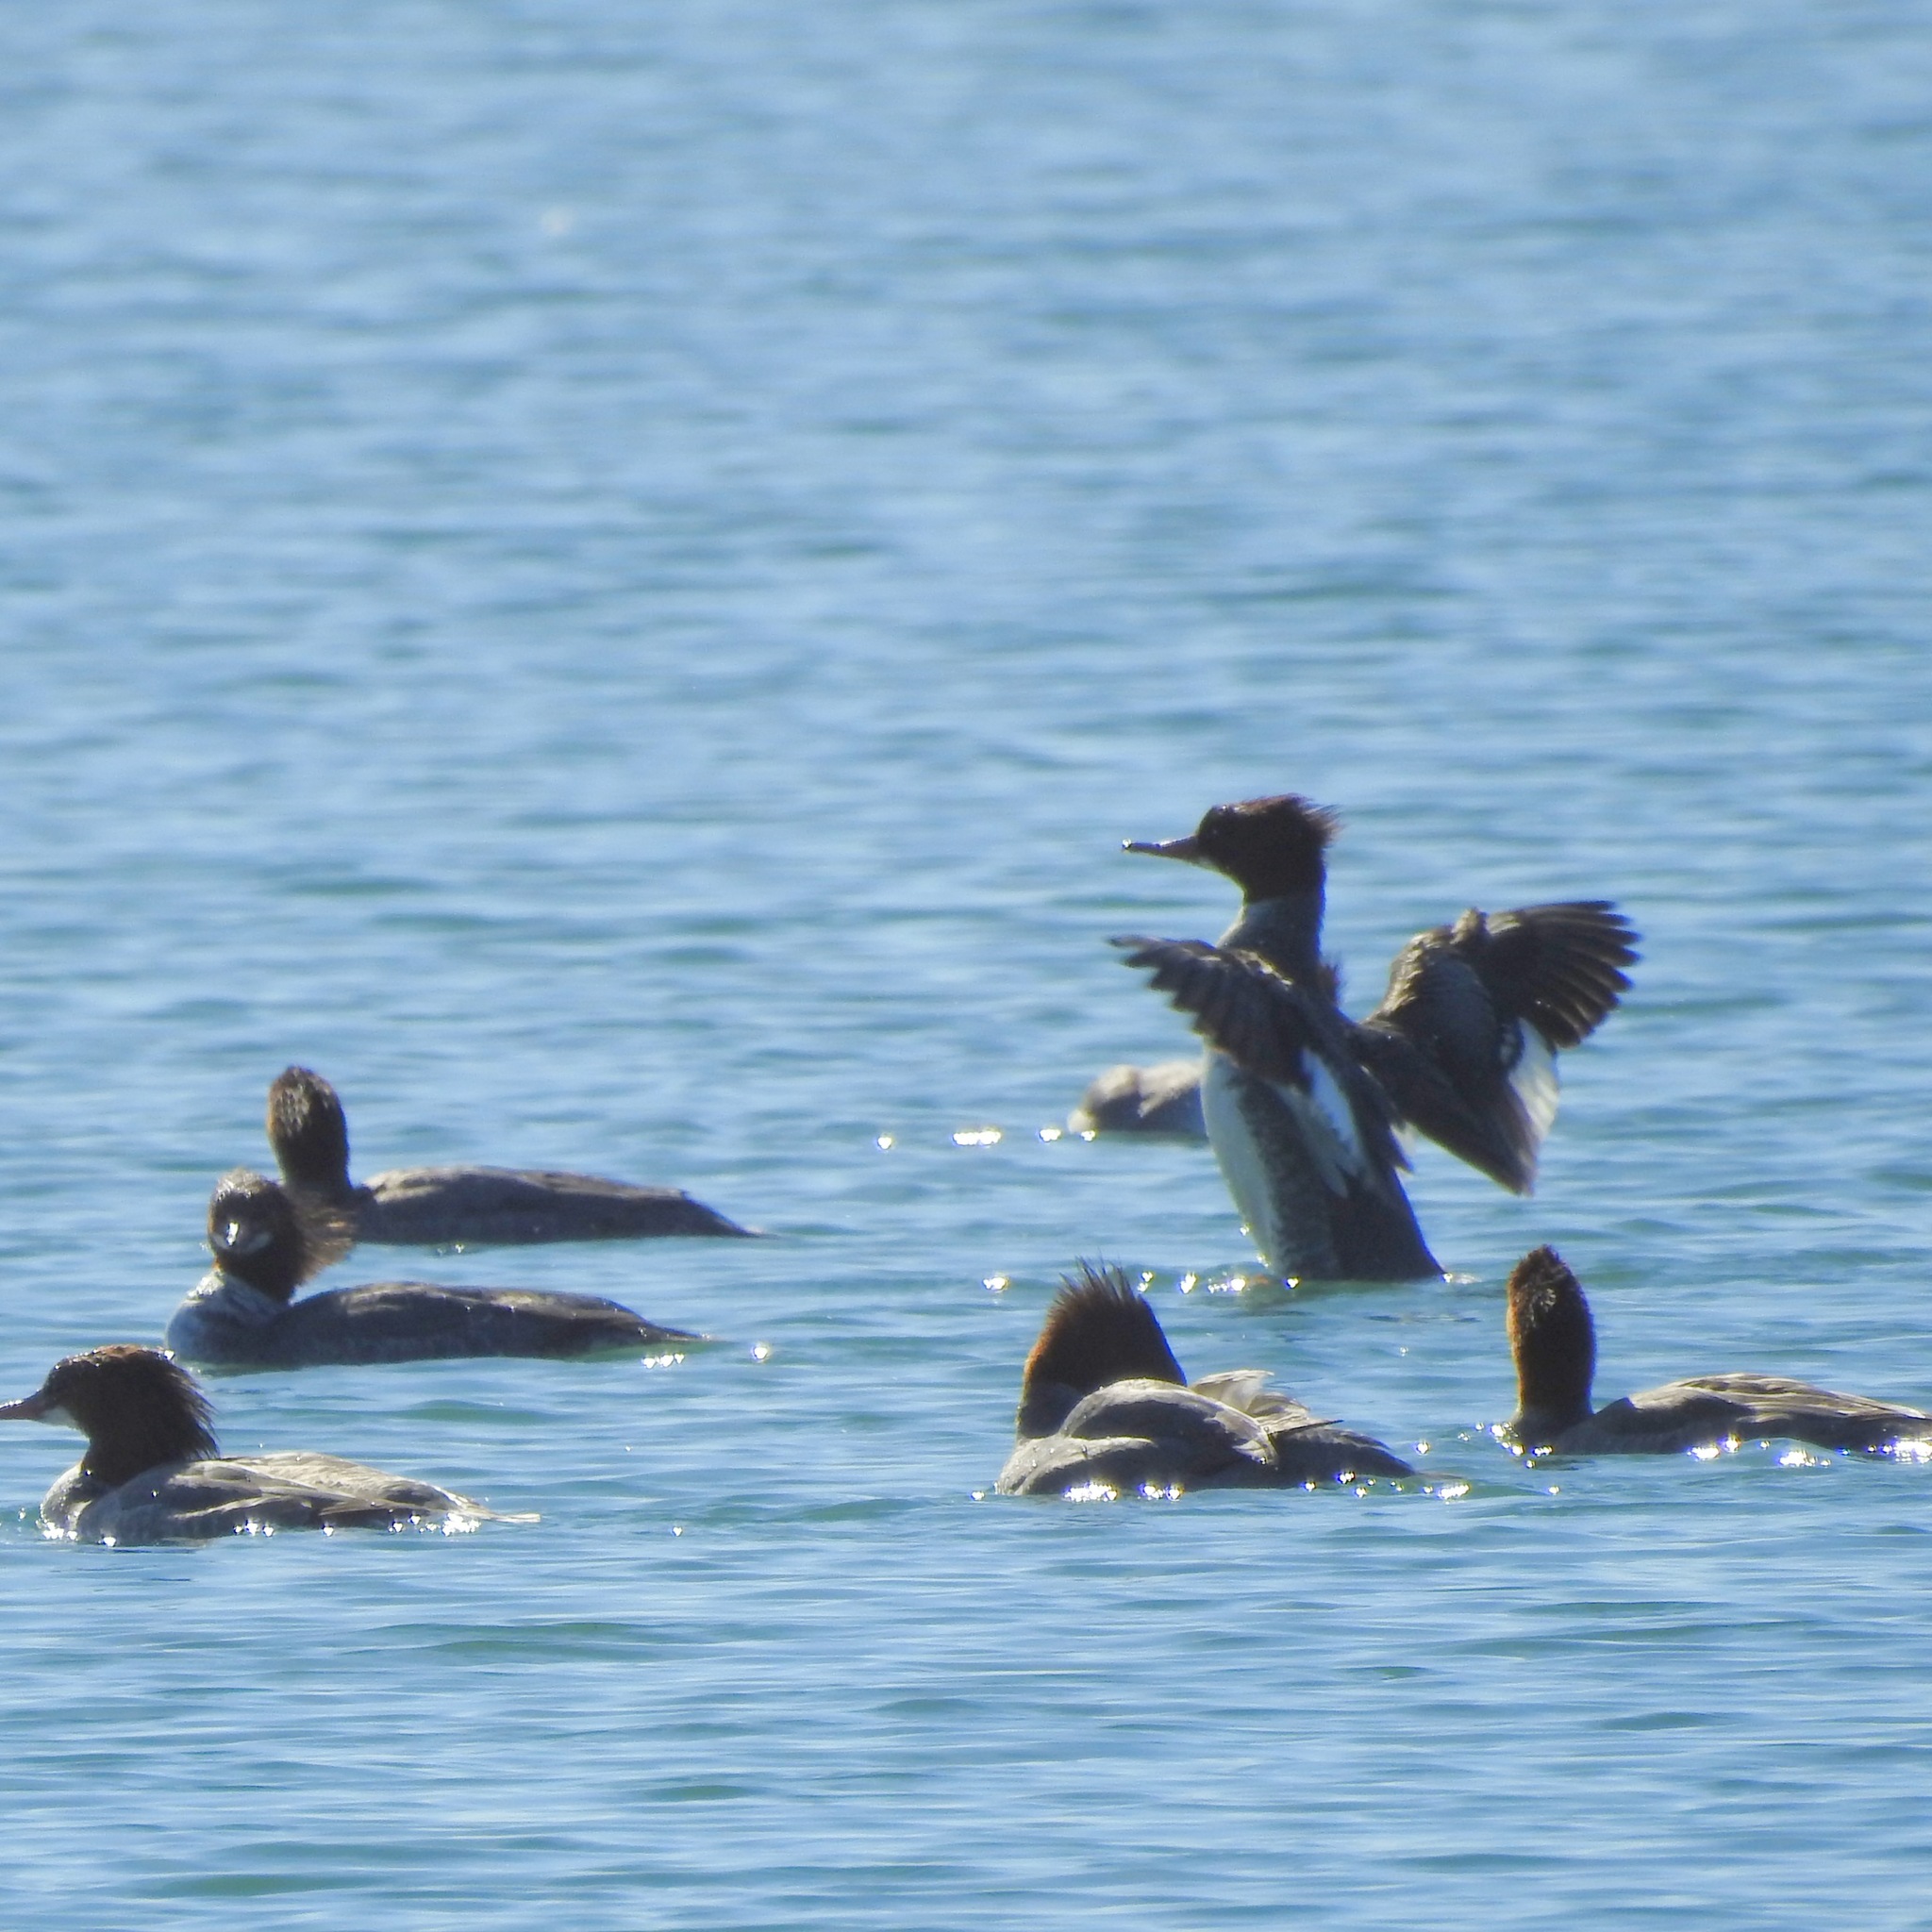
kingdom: Animalia
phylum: Chordata
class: Aves
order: Anseriformes
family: Anatidae
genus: Mergus
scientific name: Mergus merganser
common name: Common merganser
